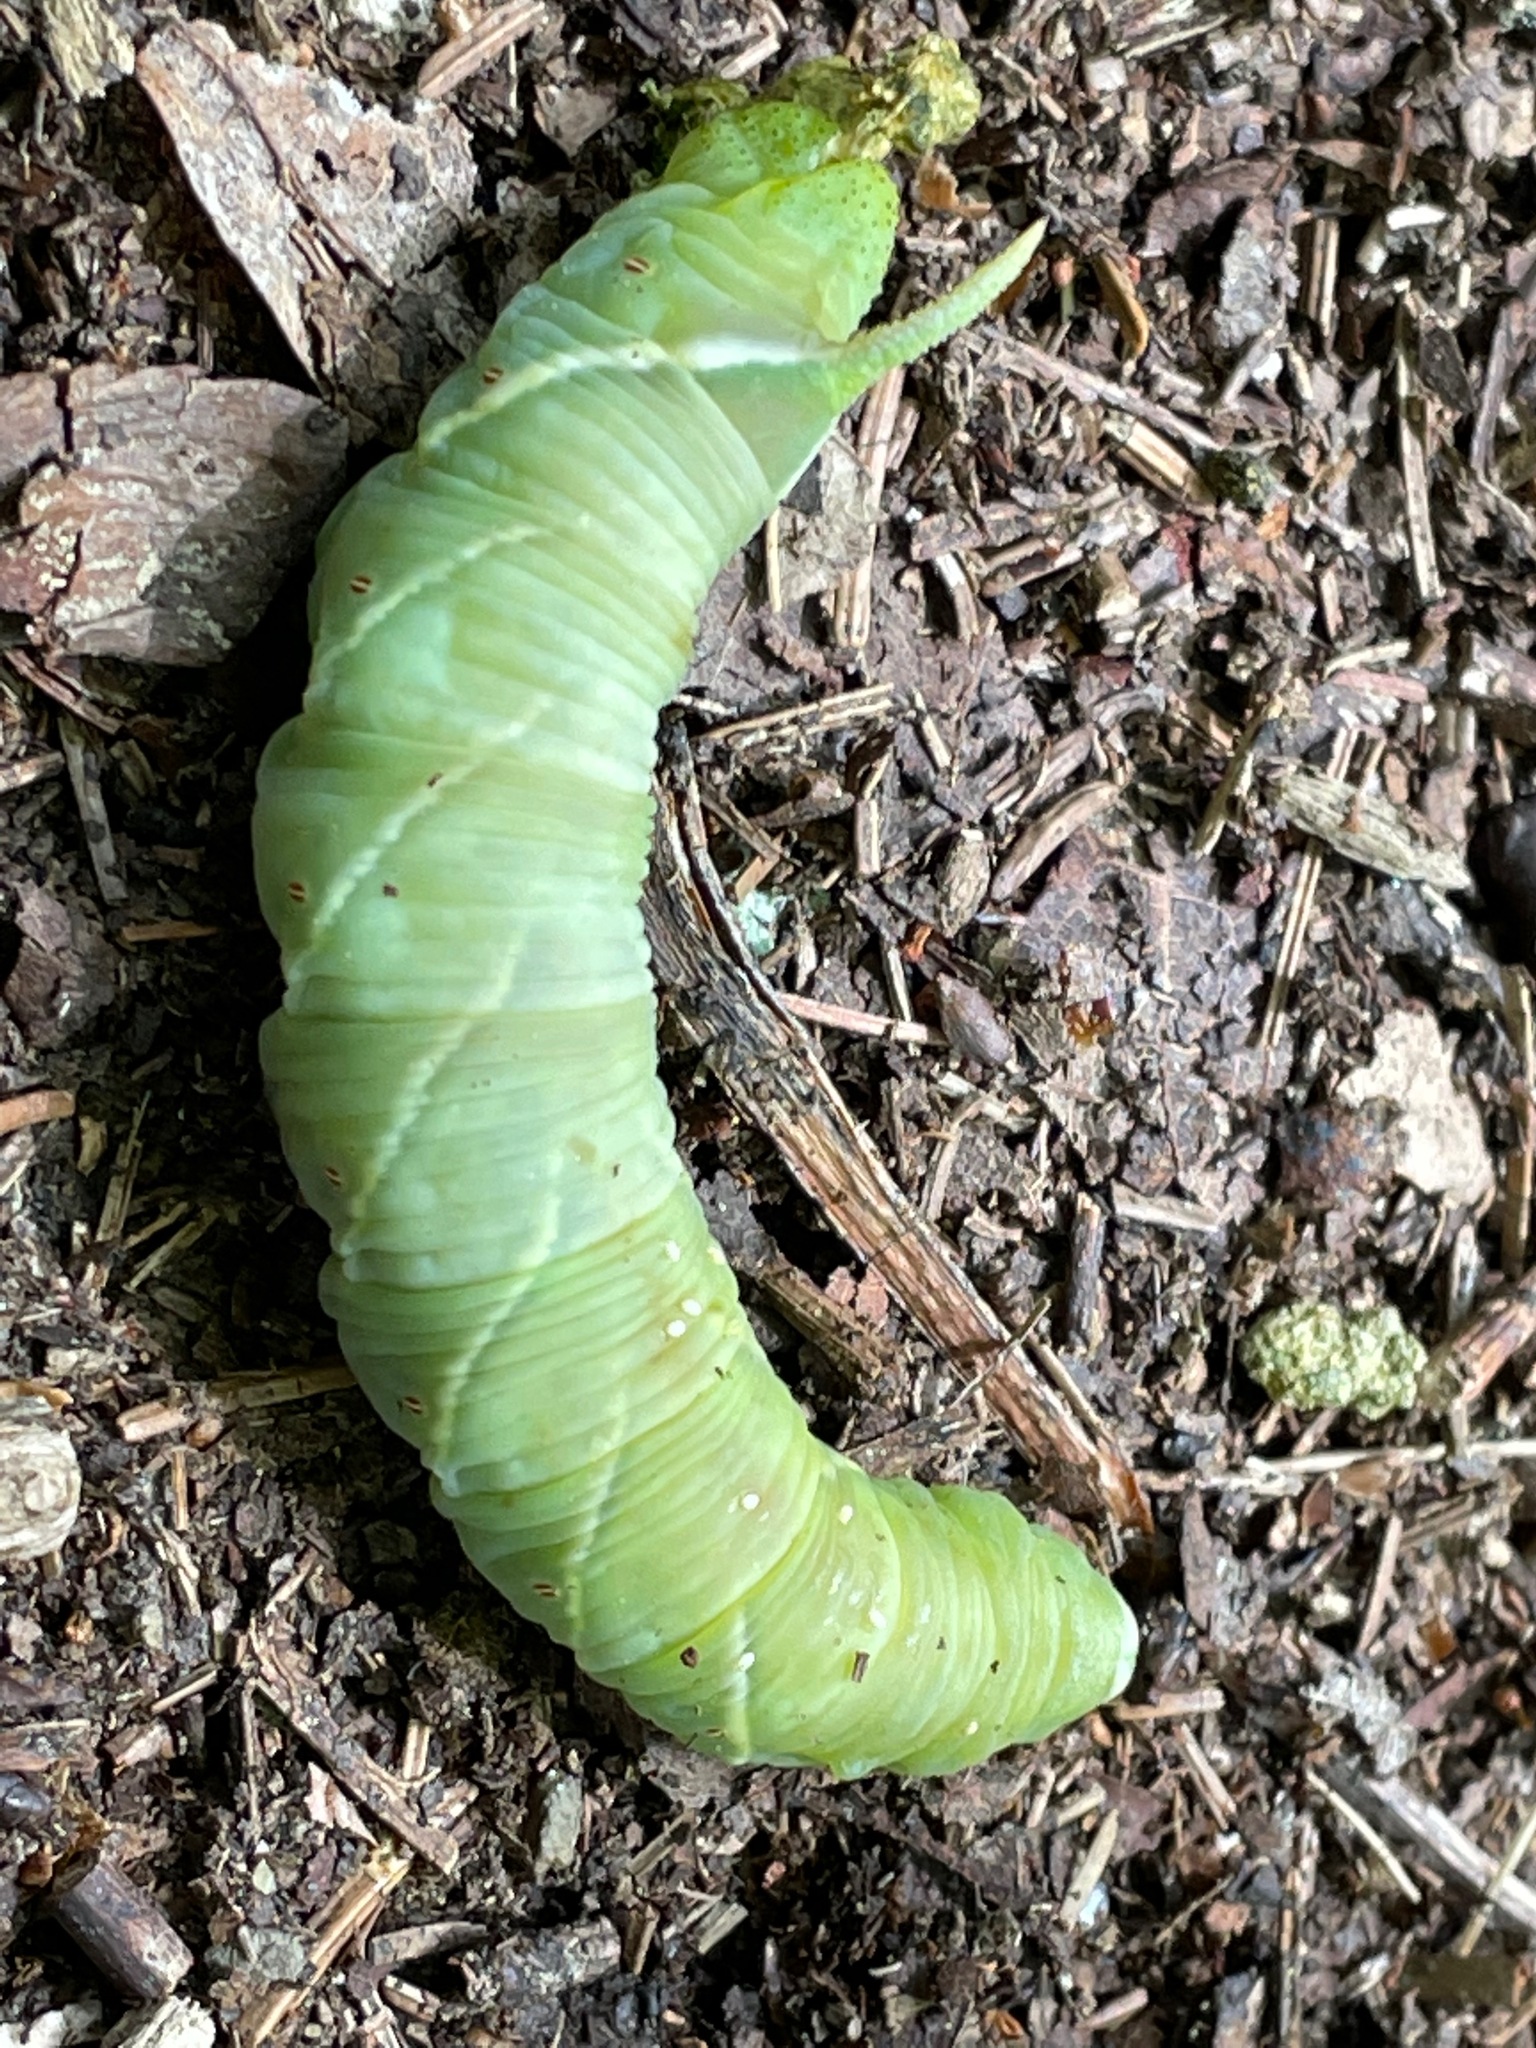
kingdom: Animalia
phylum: Arthropoda
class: Insecta
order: Lepidoptera
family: Sphingidae
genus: Ceratomia
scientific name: Ceratomia undulosa
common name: Waved sphinx
